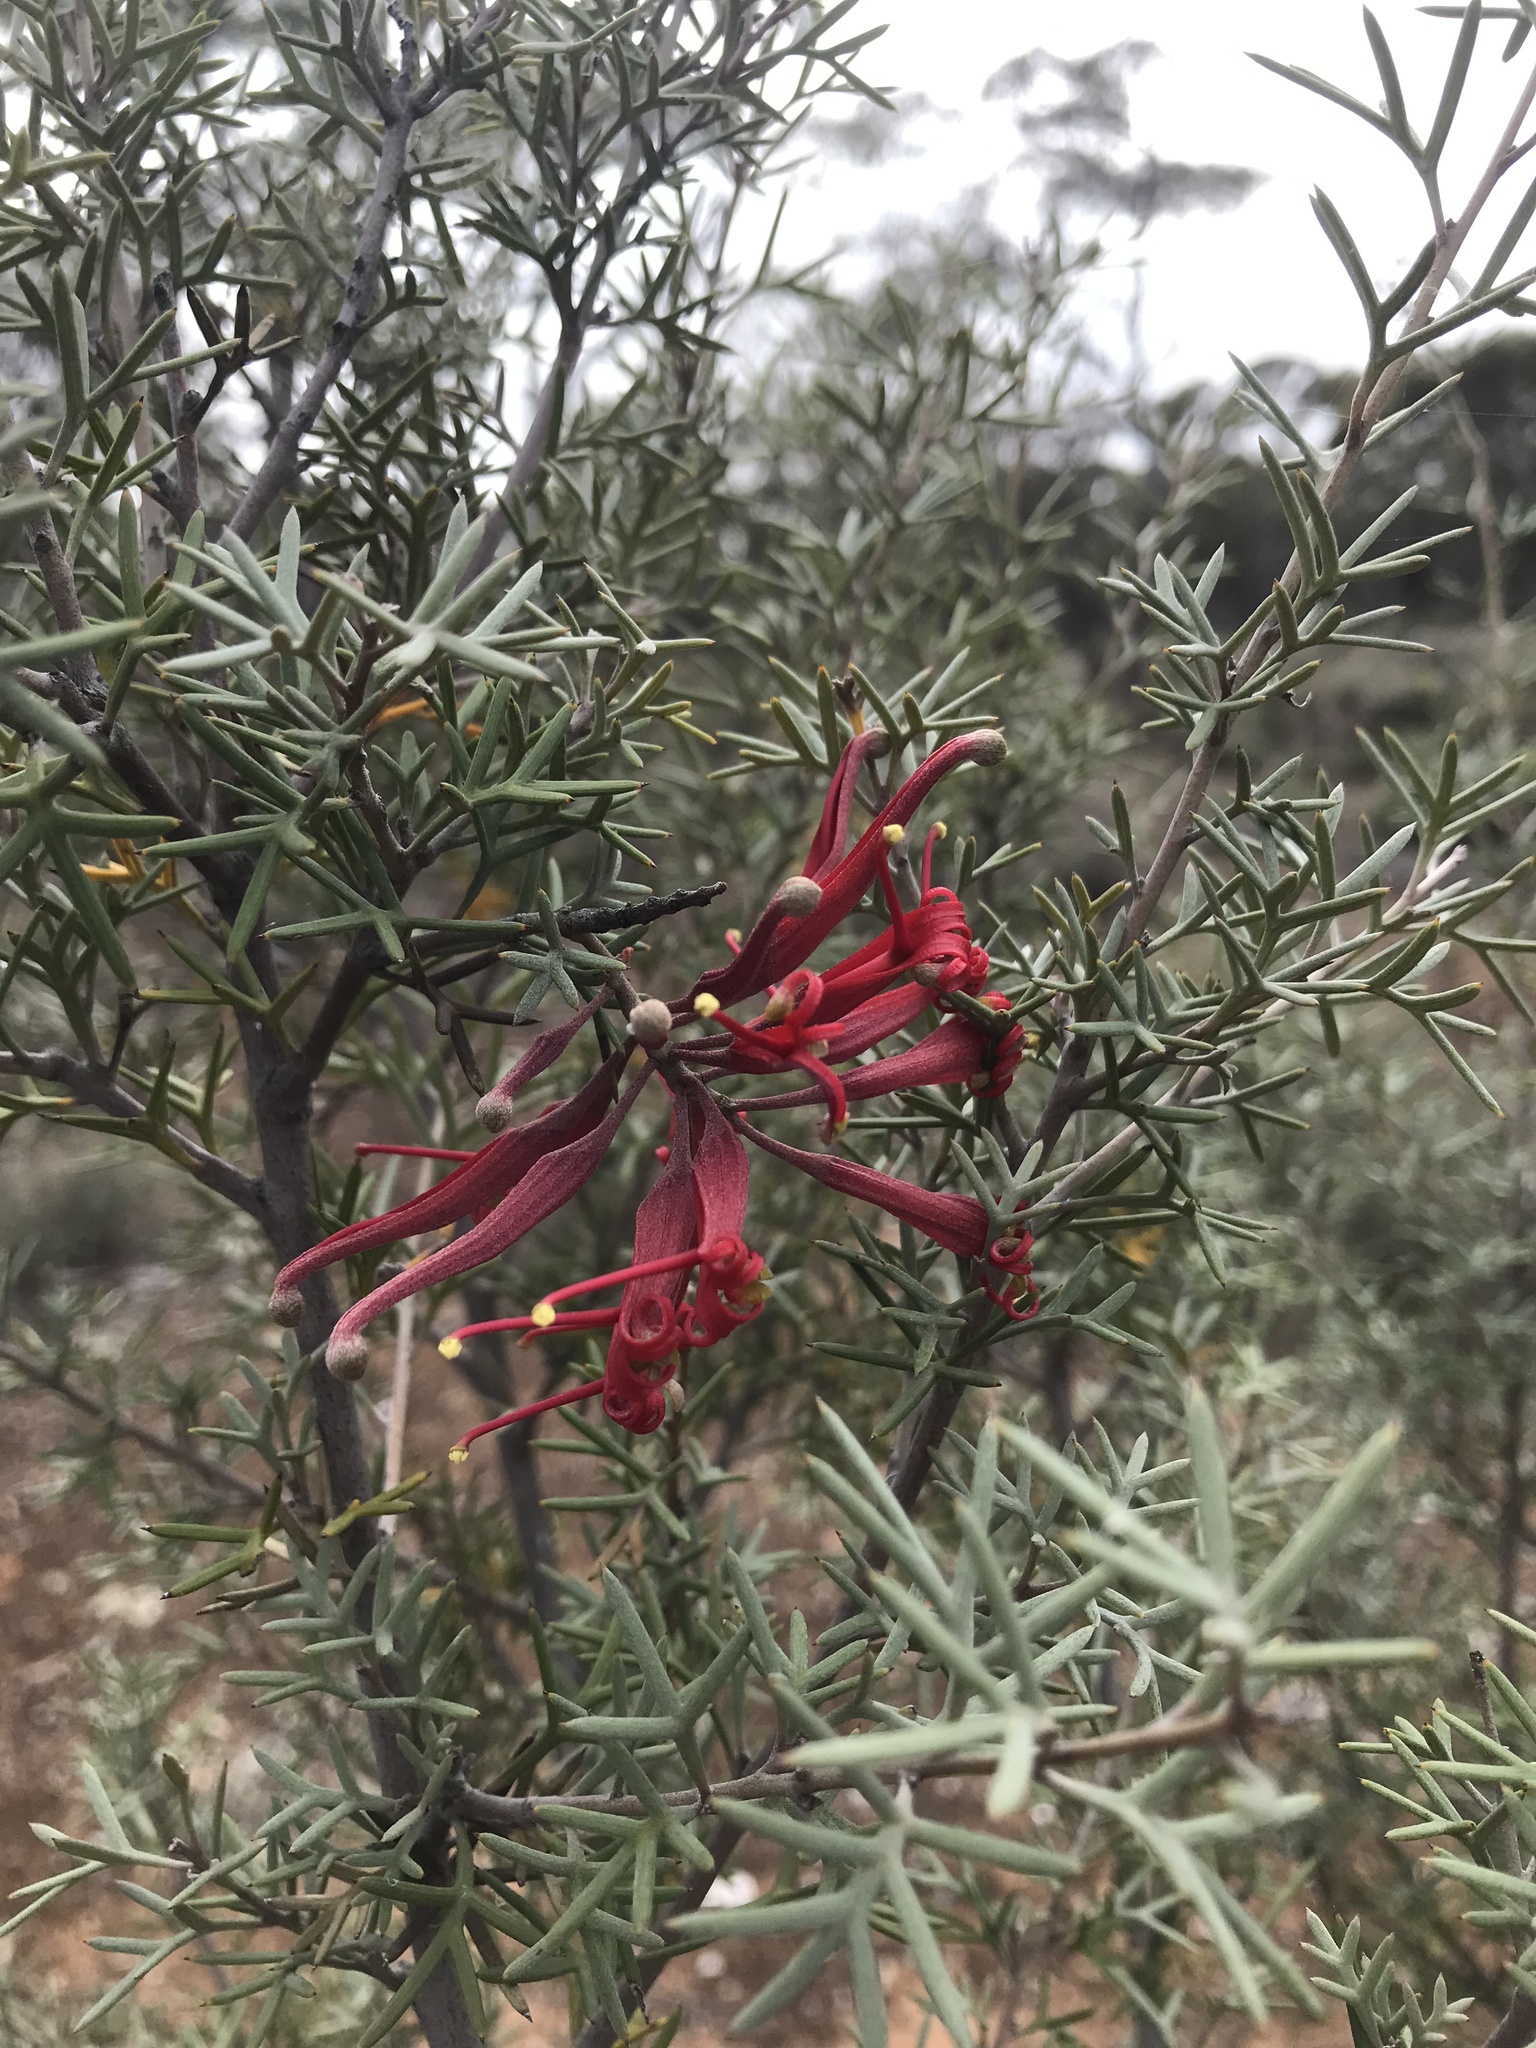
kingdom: Plantae
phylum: Tracheophyta
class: Magnoliopsida
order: Proteales
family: Proteaceae
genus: Grevillea
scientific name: Grevillea huegelii
